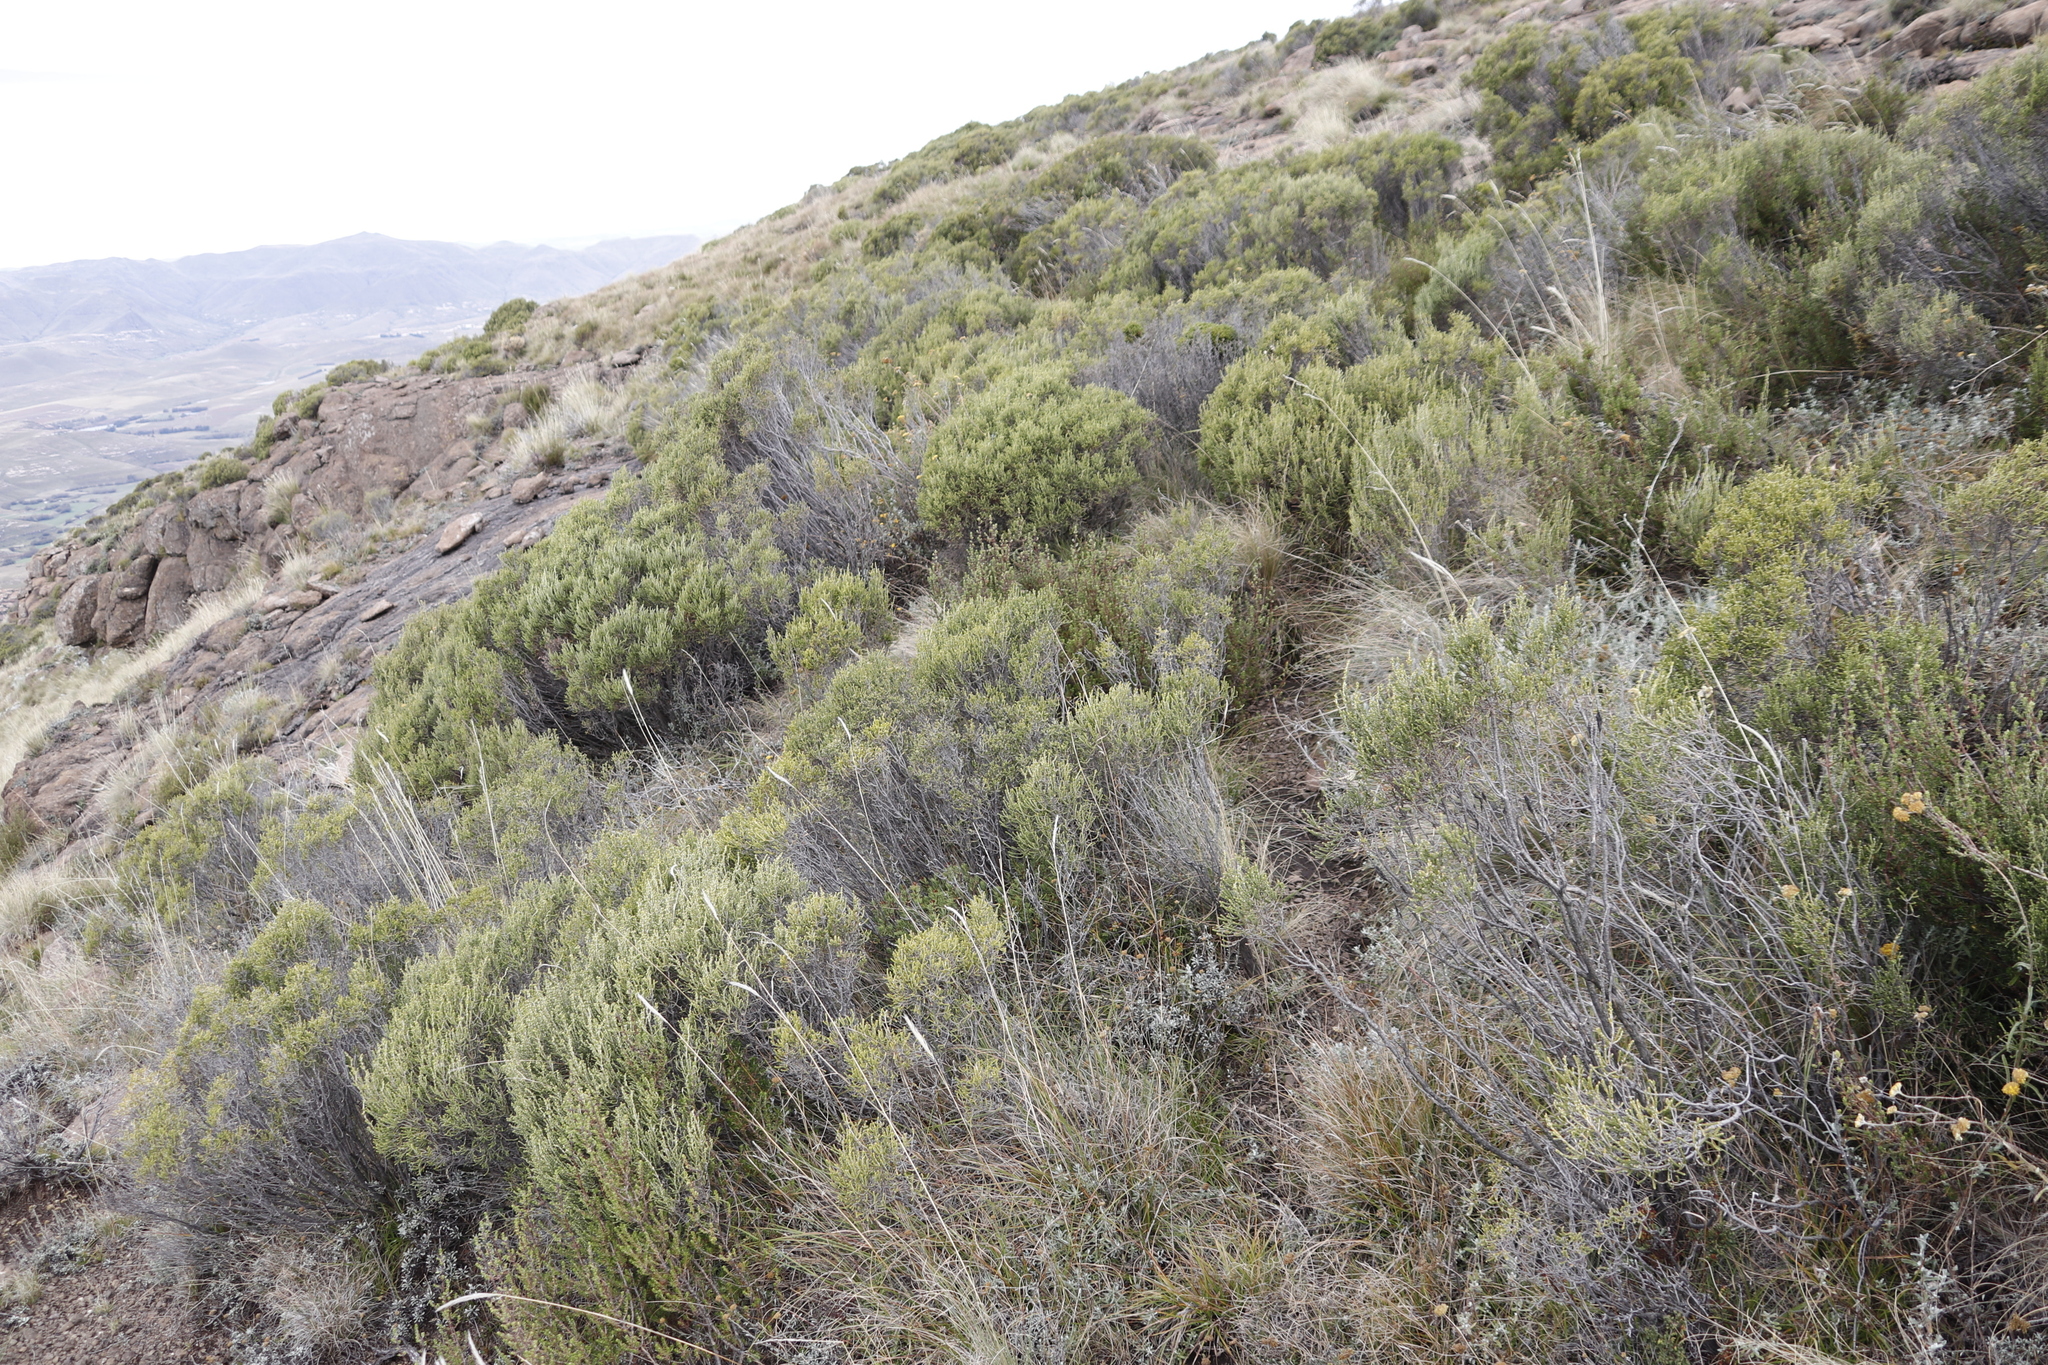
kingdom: Plantae
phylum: Tracheophyta
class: Magnoliopsida
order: Malvales
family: Thymelaeaceae
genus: Passerina
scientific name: Passerina montana
